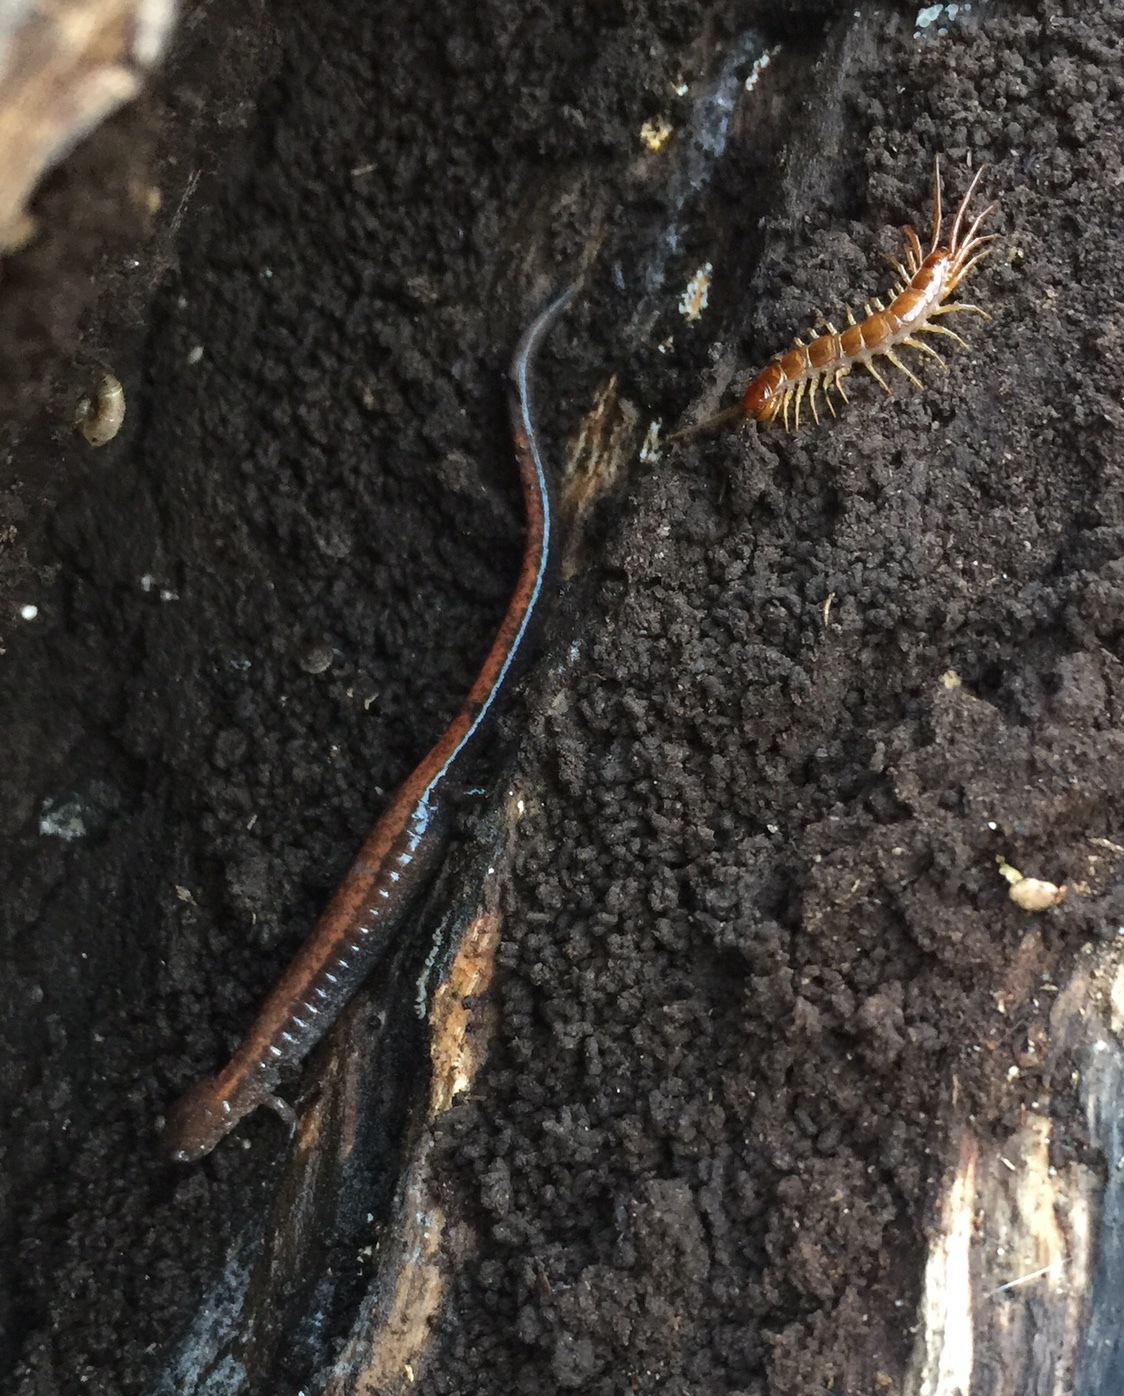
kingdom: Animalia
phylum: Chordata
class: Amphibia
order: Caudata
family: Plethodontidae
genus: Plethodon
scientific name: Plethodon cinereus
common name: Redback salamander
